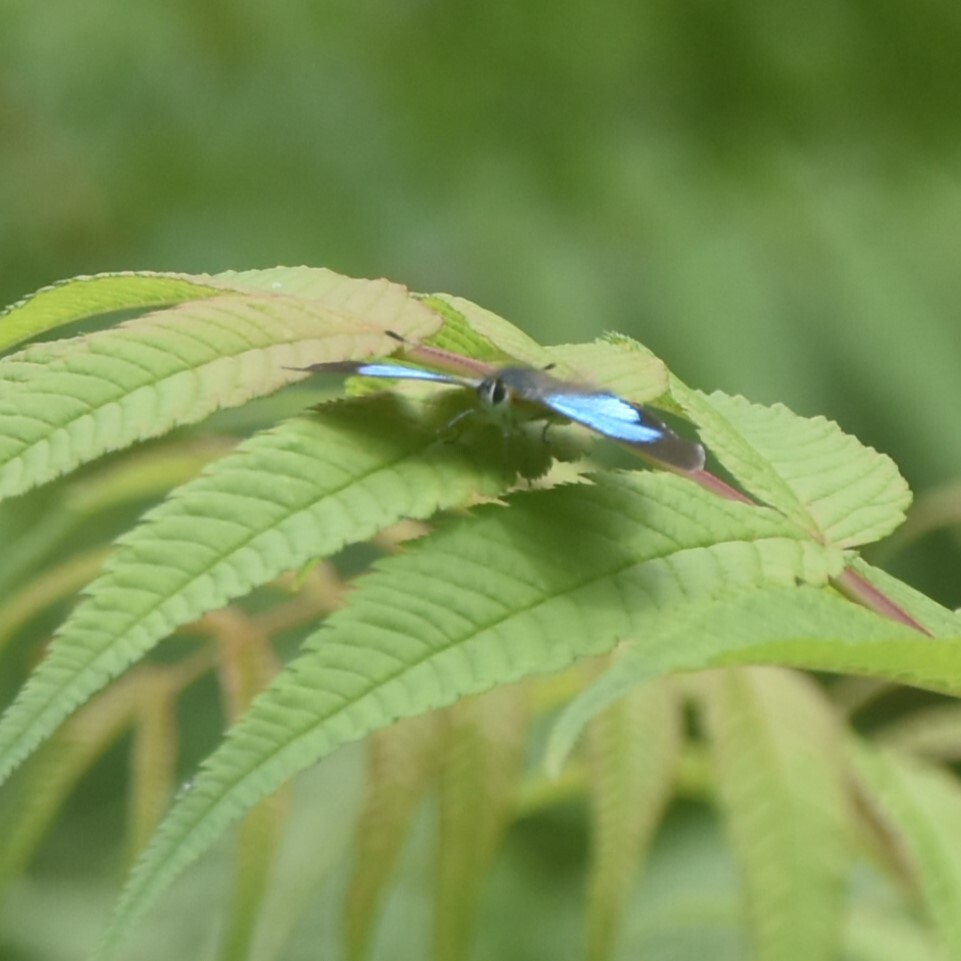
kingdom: Animalia
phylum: Arthropoda
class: Insecta
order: Lepidoptera
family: Lycaenidae
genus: Heliophorus
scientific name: Heliophorus
